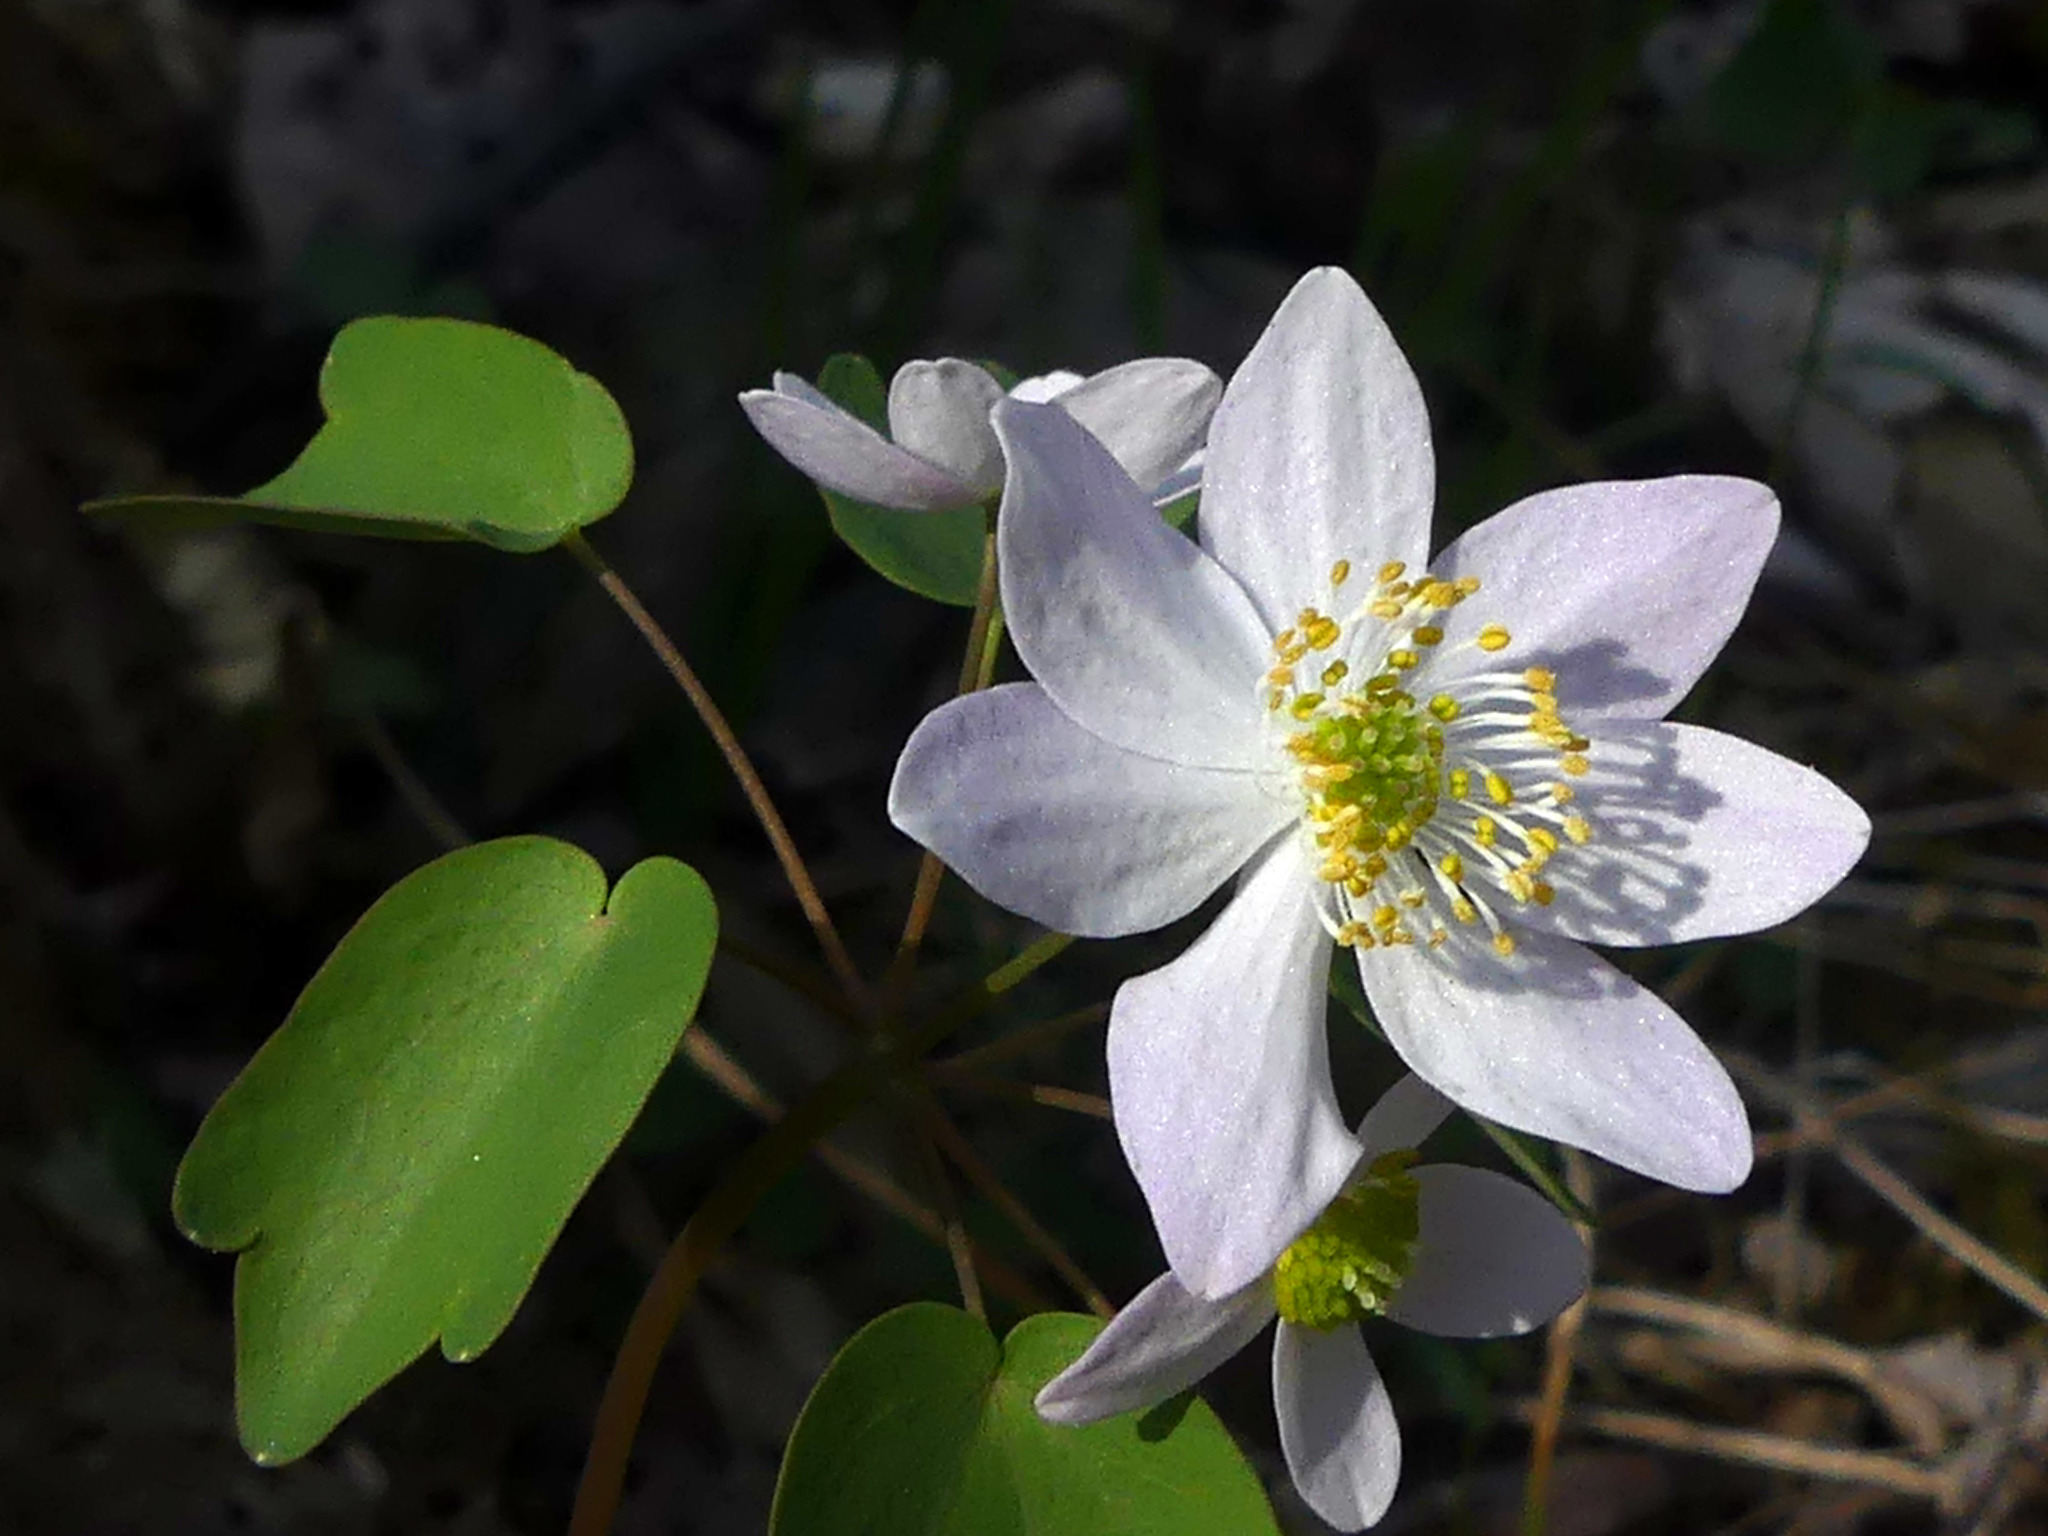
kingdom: Plantae
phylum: Tracheophyta
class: Magnoliopsida
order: Ranunculales
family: Ranunculaceae
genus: Thalictrum
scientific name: Thalictrum thalictroides
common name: Rue-anemone
